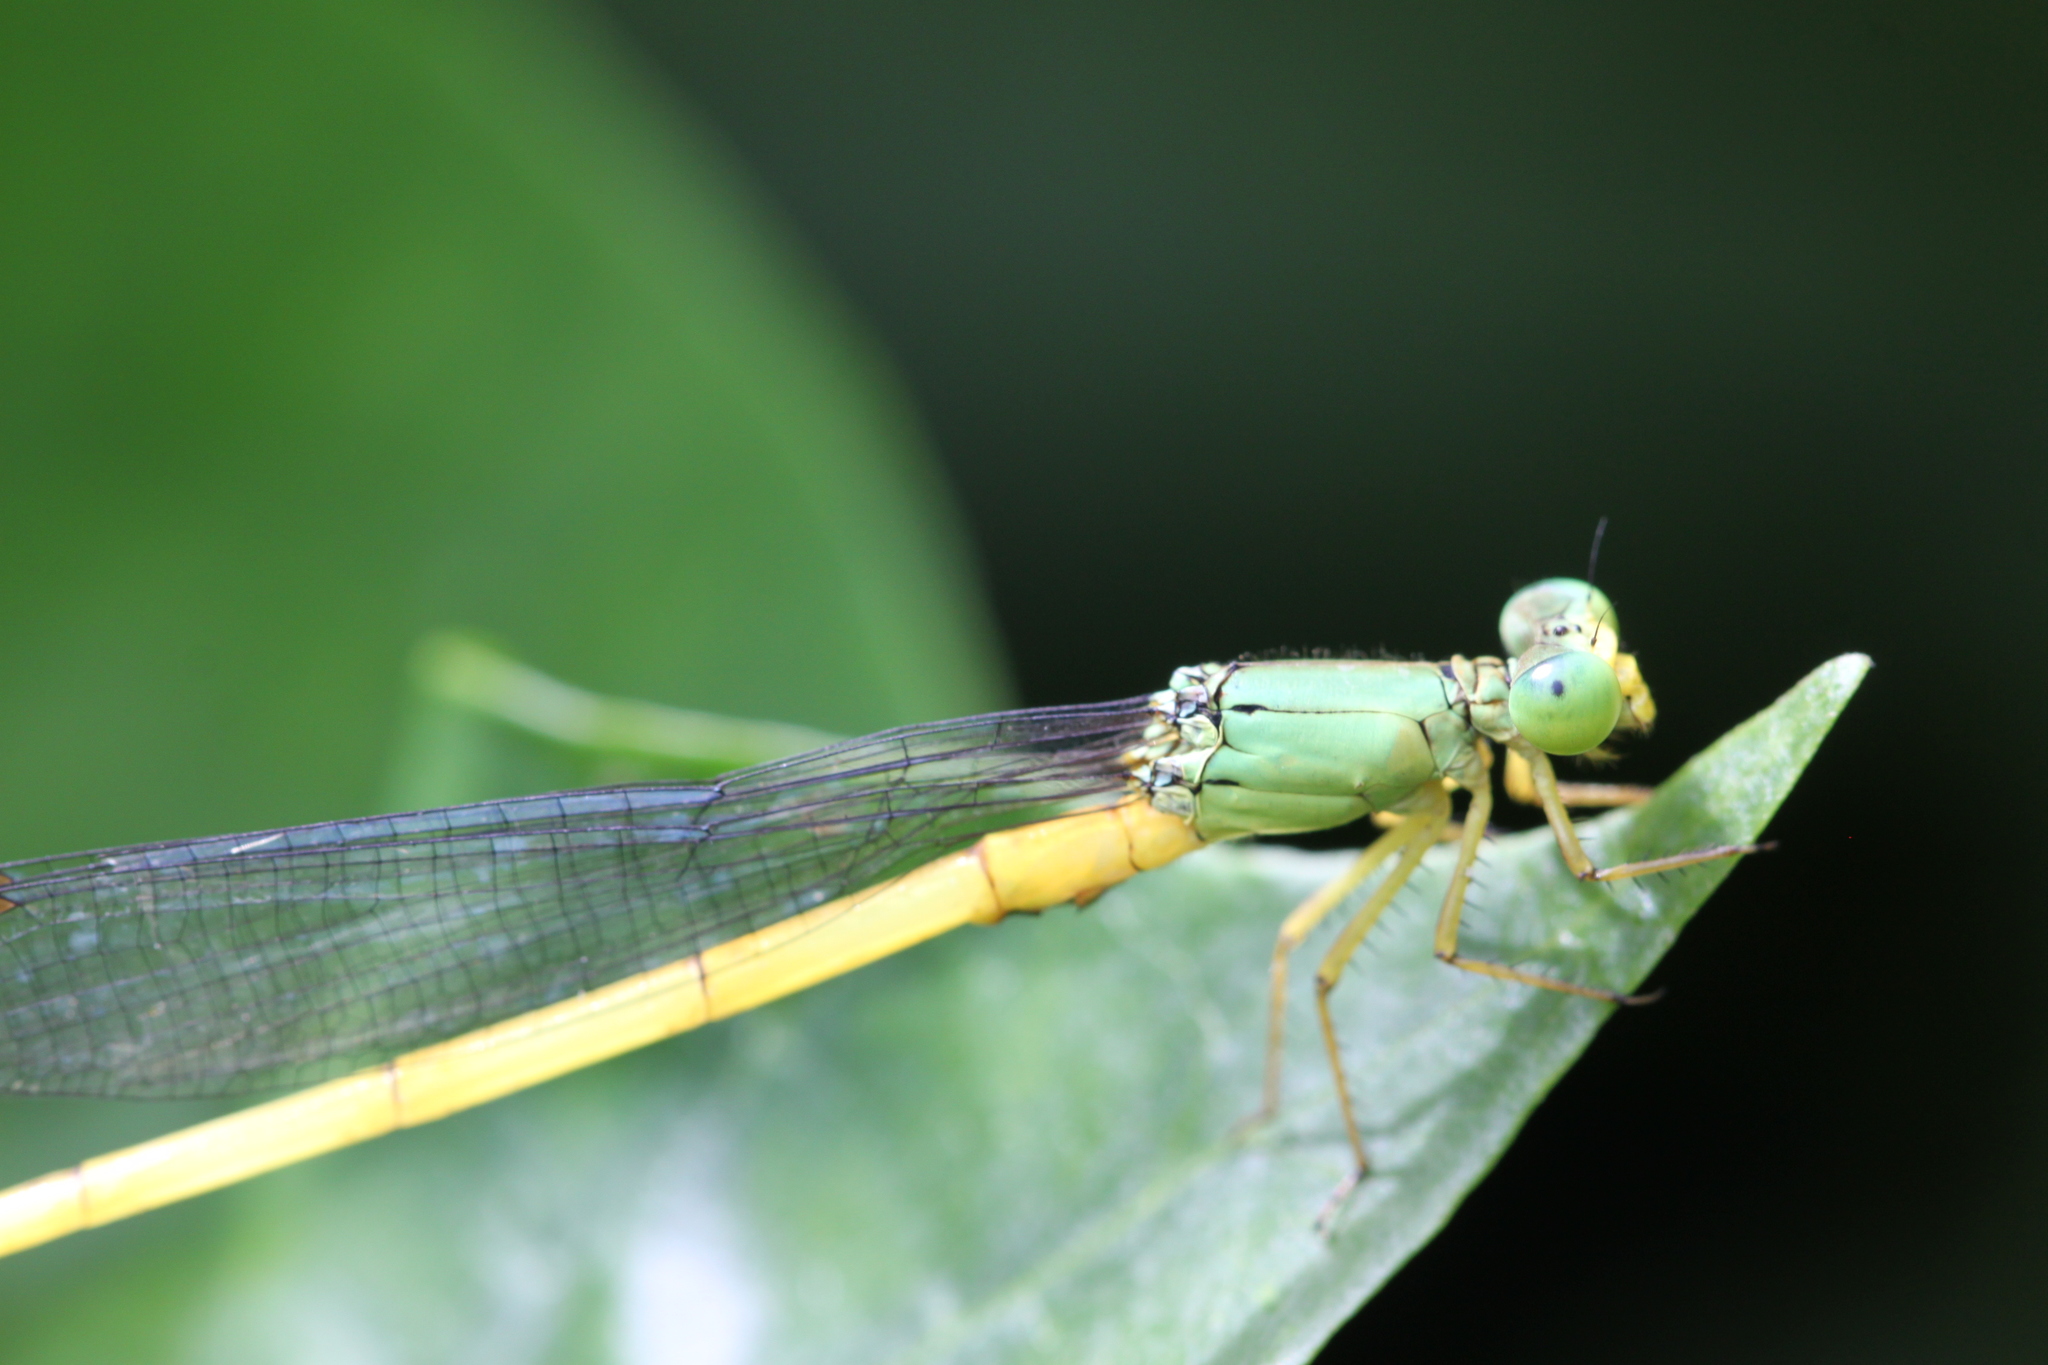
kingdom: Animalia
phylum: Arthropoda
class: Insecta
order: Odonata
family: Coenagrionidae
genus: Ceriagrion
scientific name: Ceriagrion fallax
